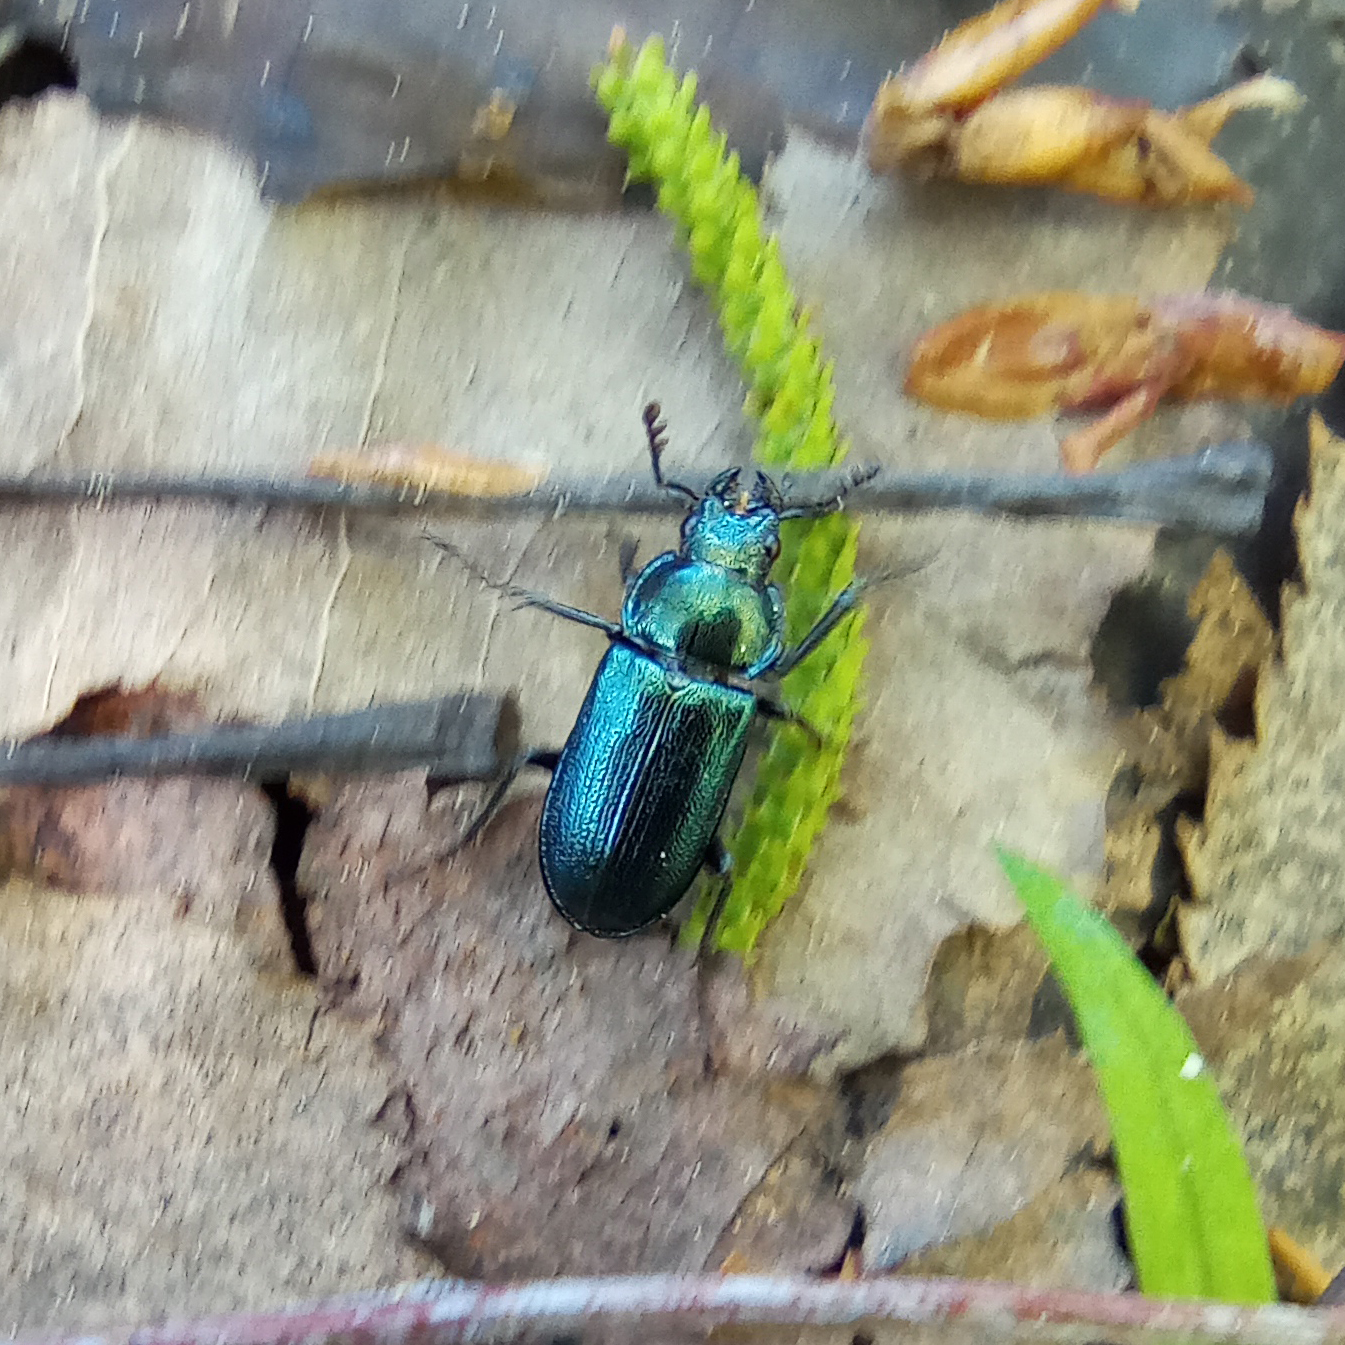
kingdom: Animalia
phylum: Arthropoda
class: Insecta
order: Coleoptera
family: Lucanidae
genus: Platycerus
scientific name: Platycerus caraboides
